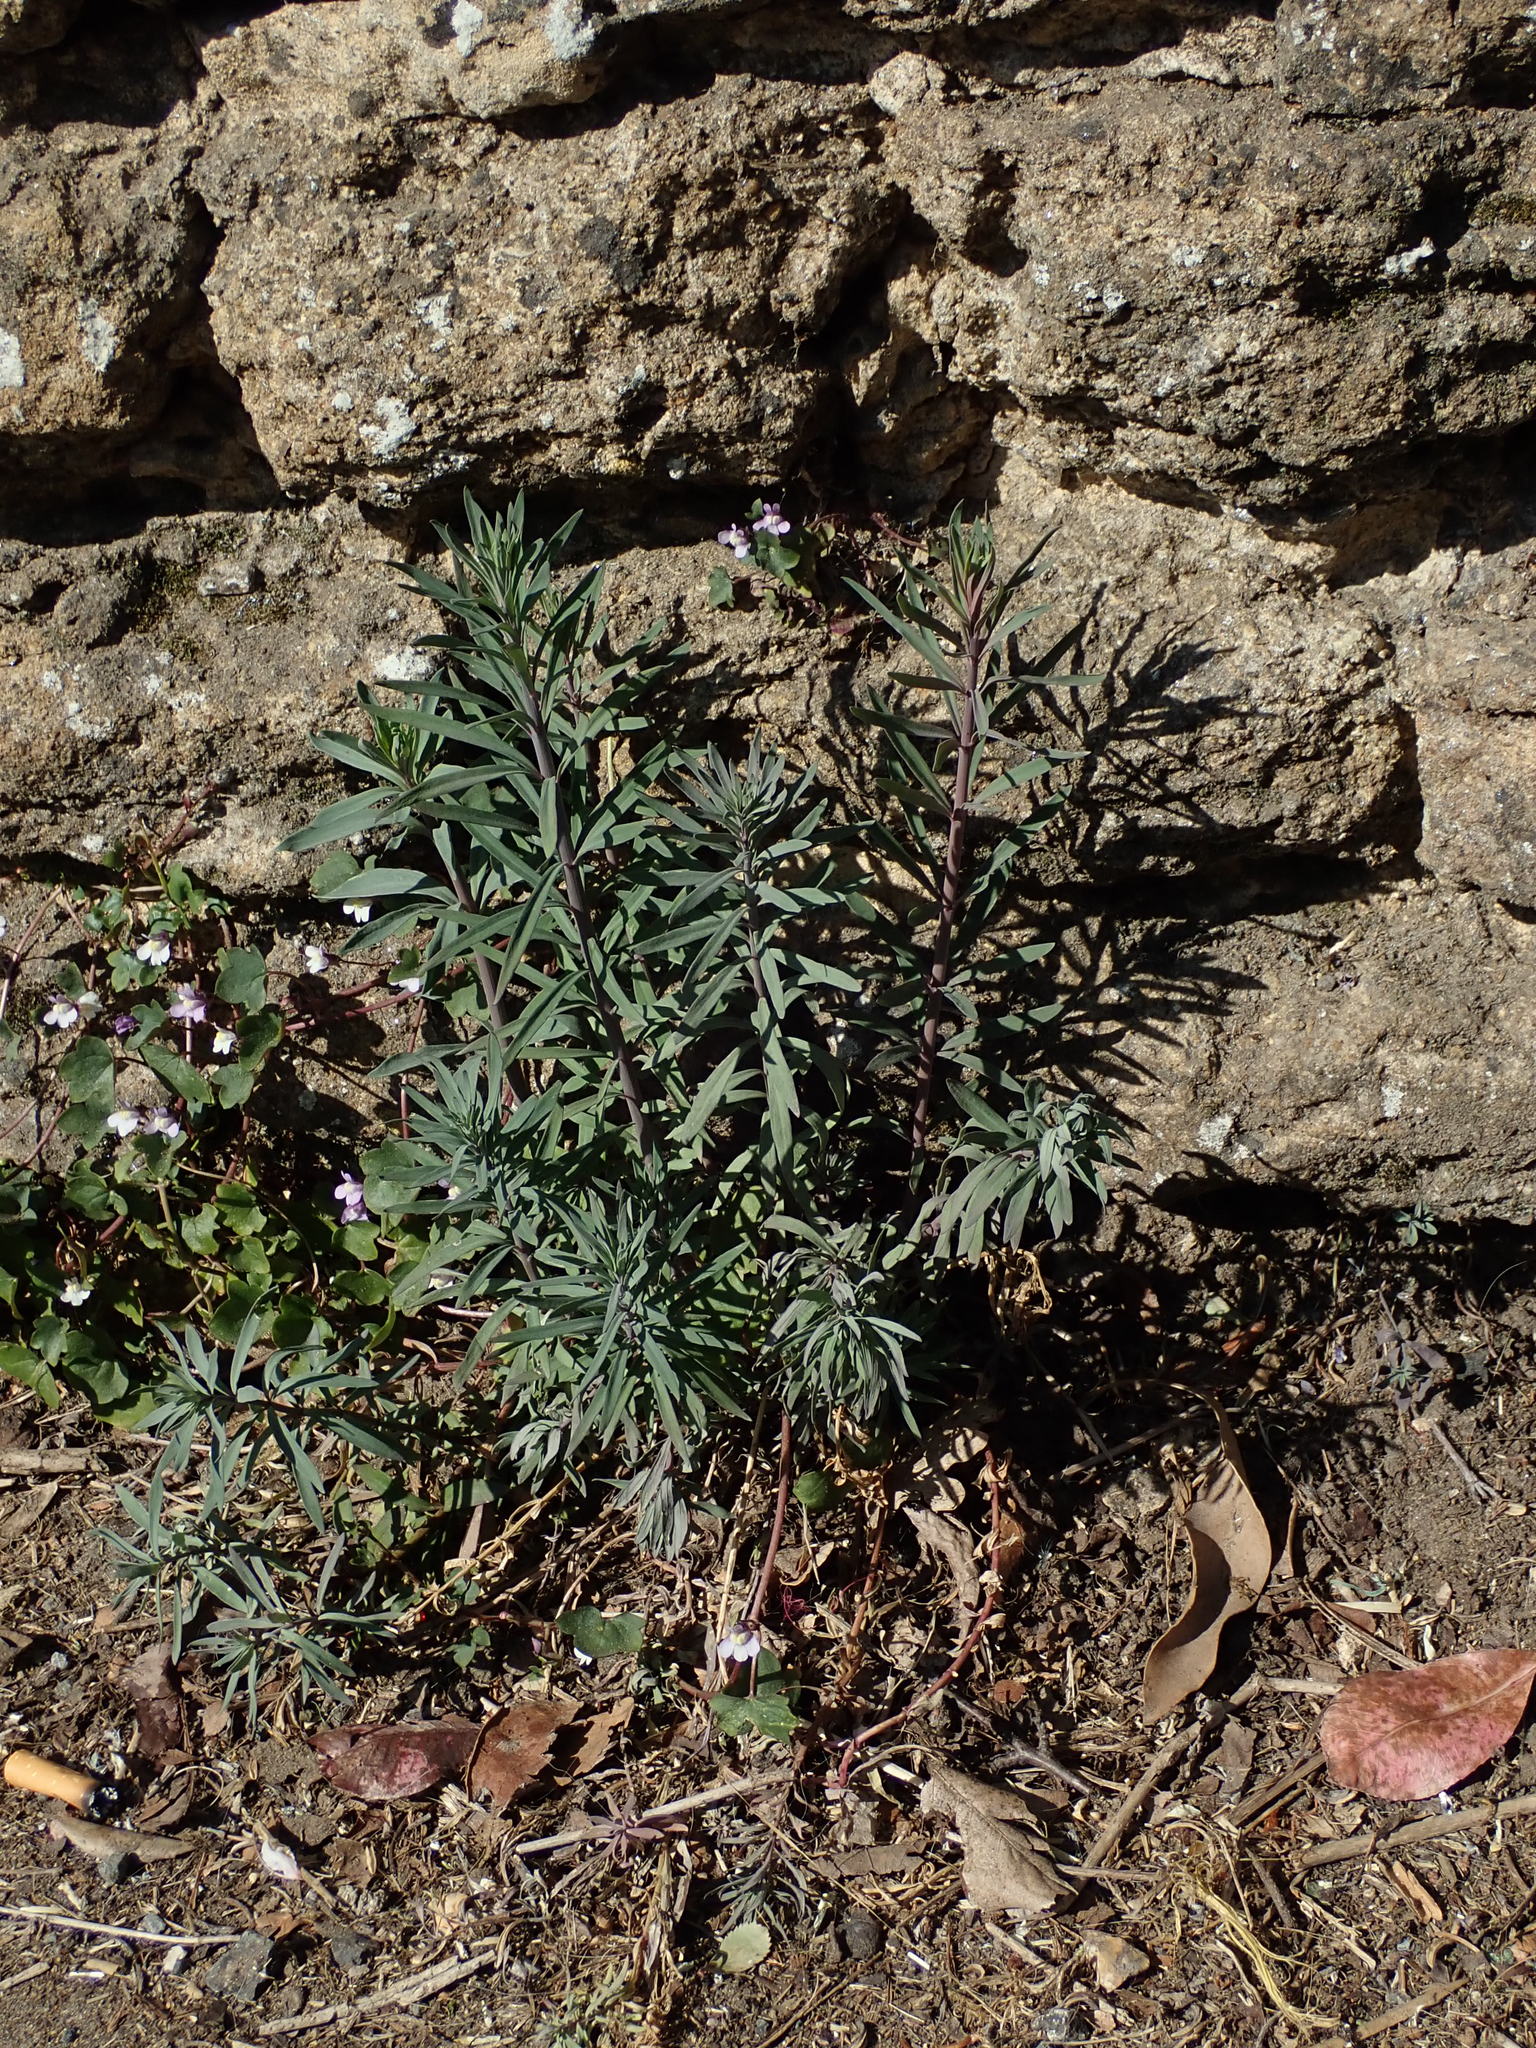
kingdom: Plantae
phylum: Tracheophyta
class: Magnoliopsida
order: Lamiales
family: Plantaginaceae
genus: Linaria
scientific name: Linaria purpurea
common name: Purple toadflax
